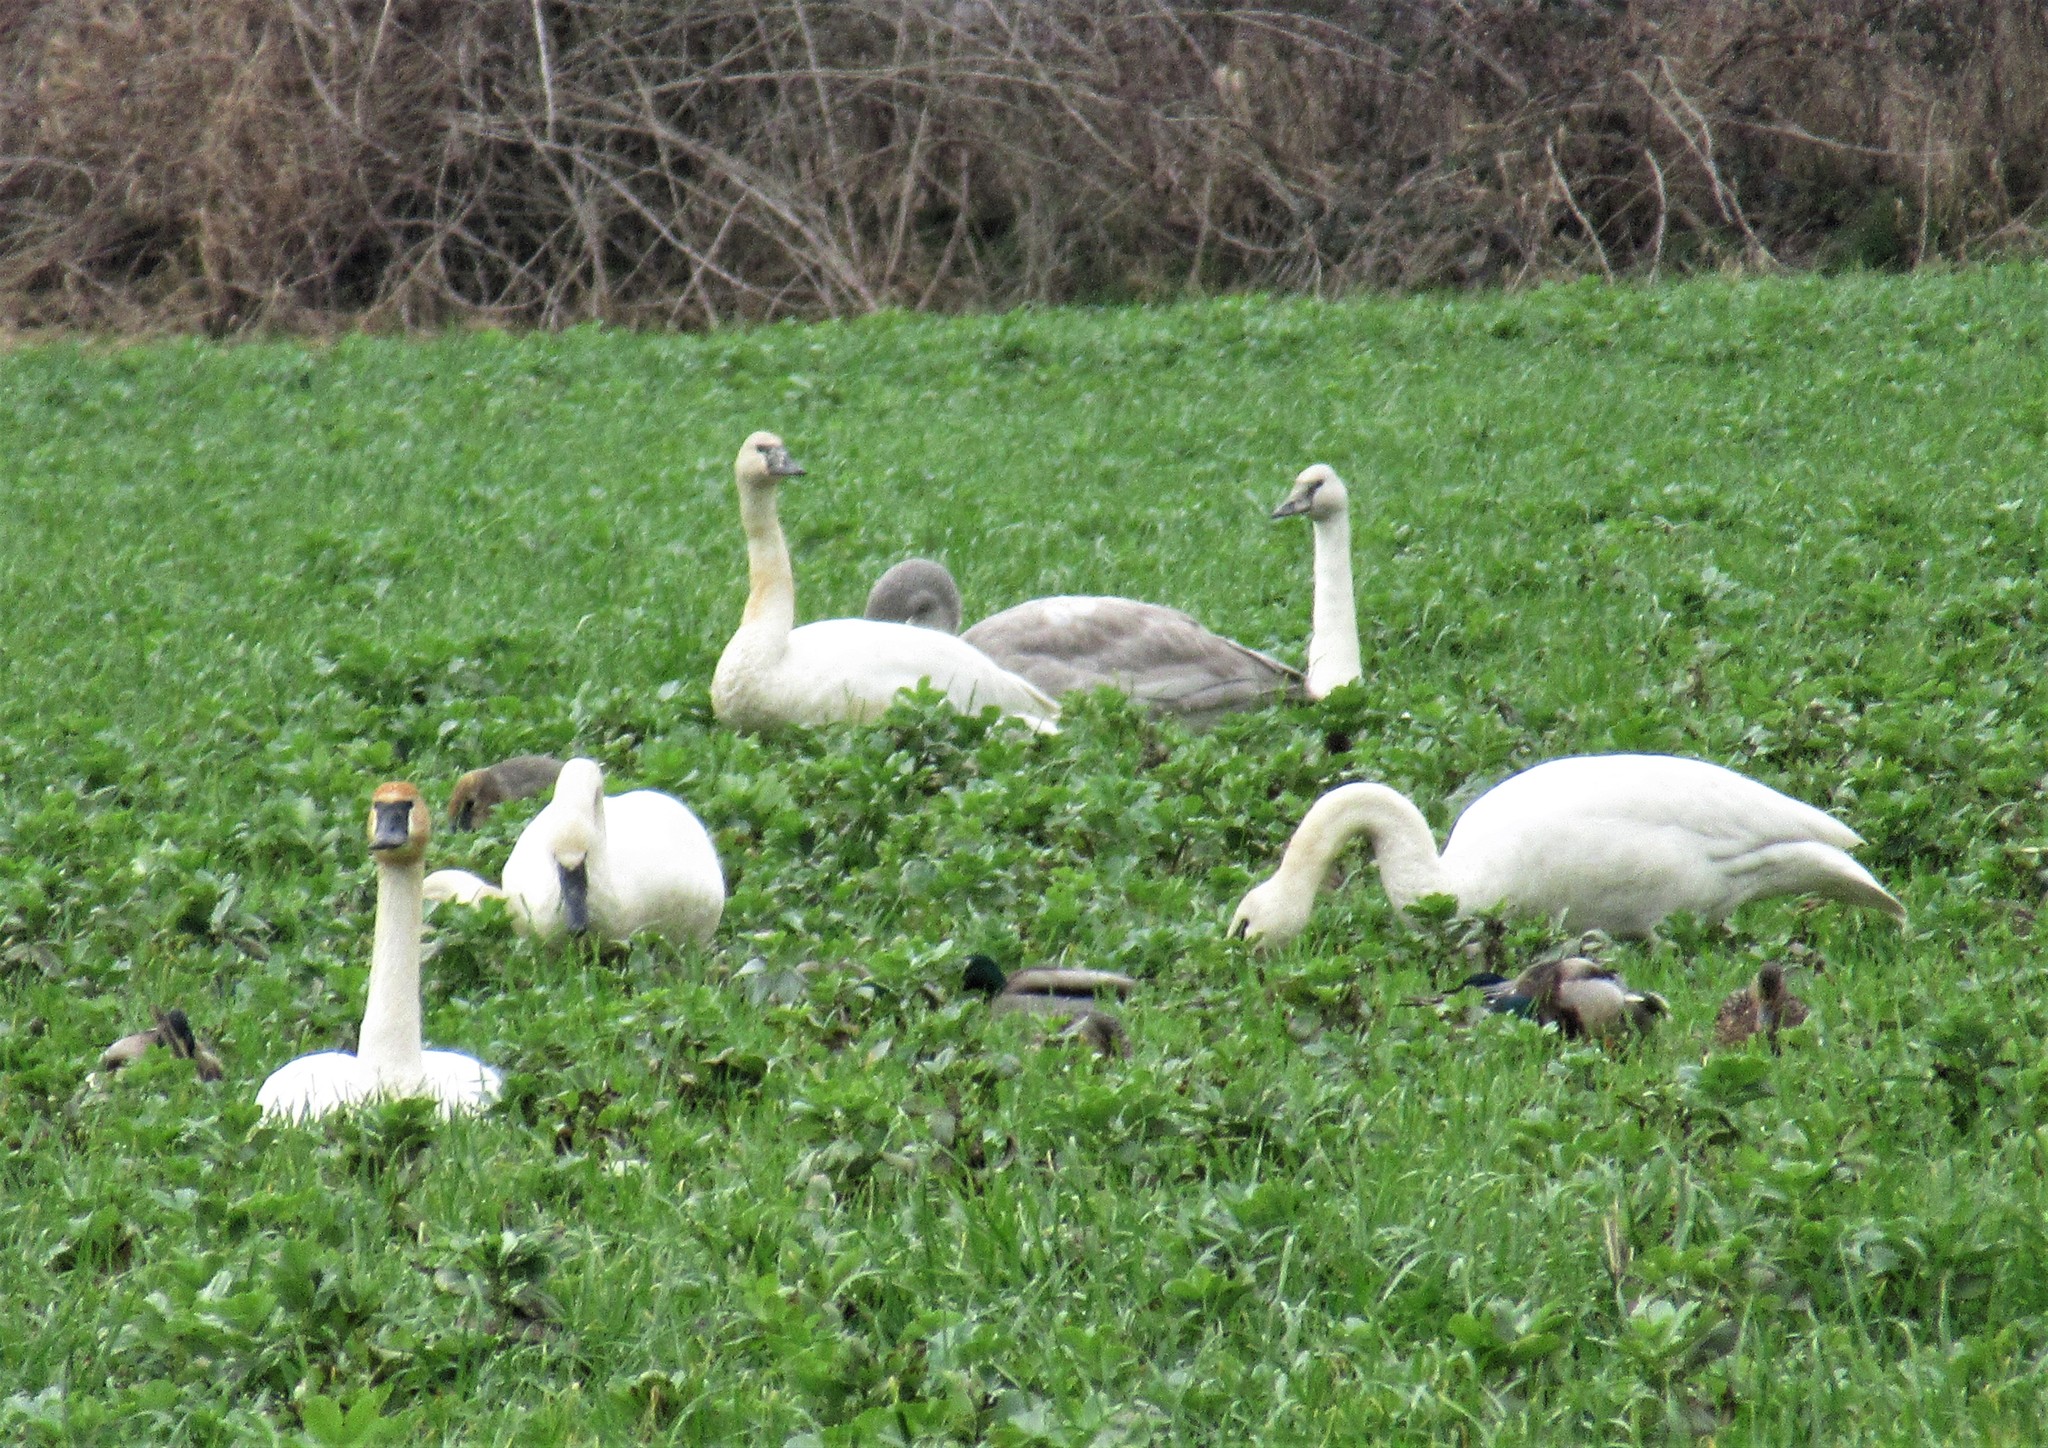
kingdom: Animalia
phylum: Chordata
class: Aves
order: Anseriformes
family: Anatidae
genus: Cygnus
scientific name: Cygnus buccinator
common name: Trumpeter swan
